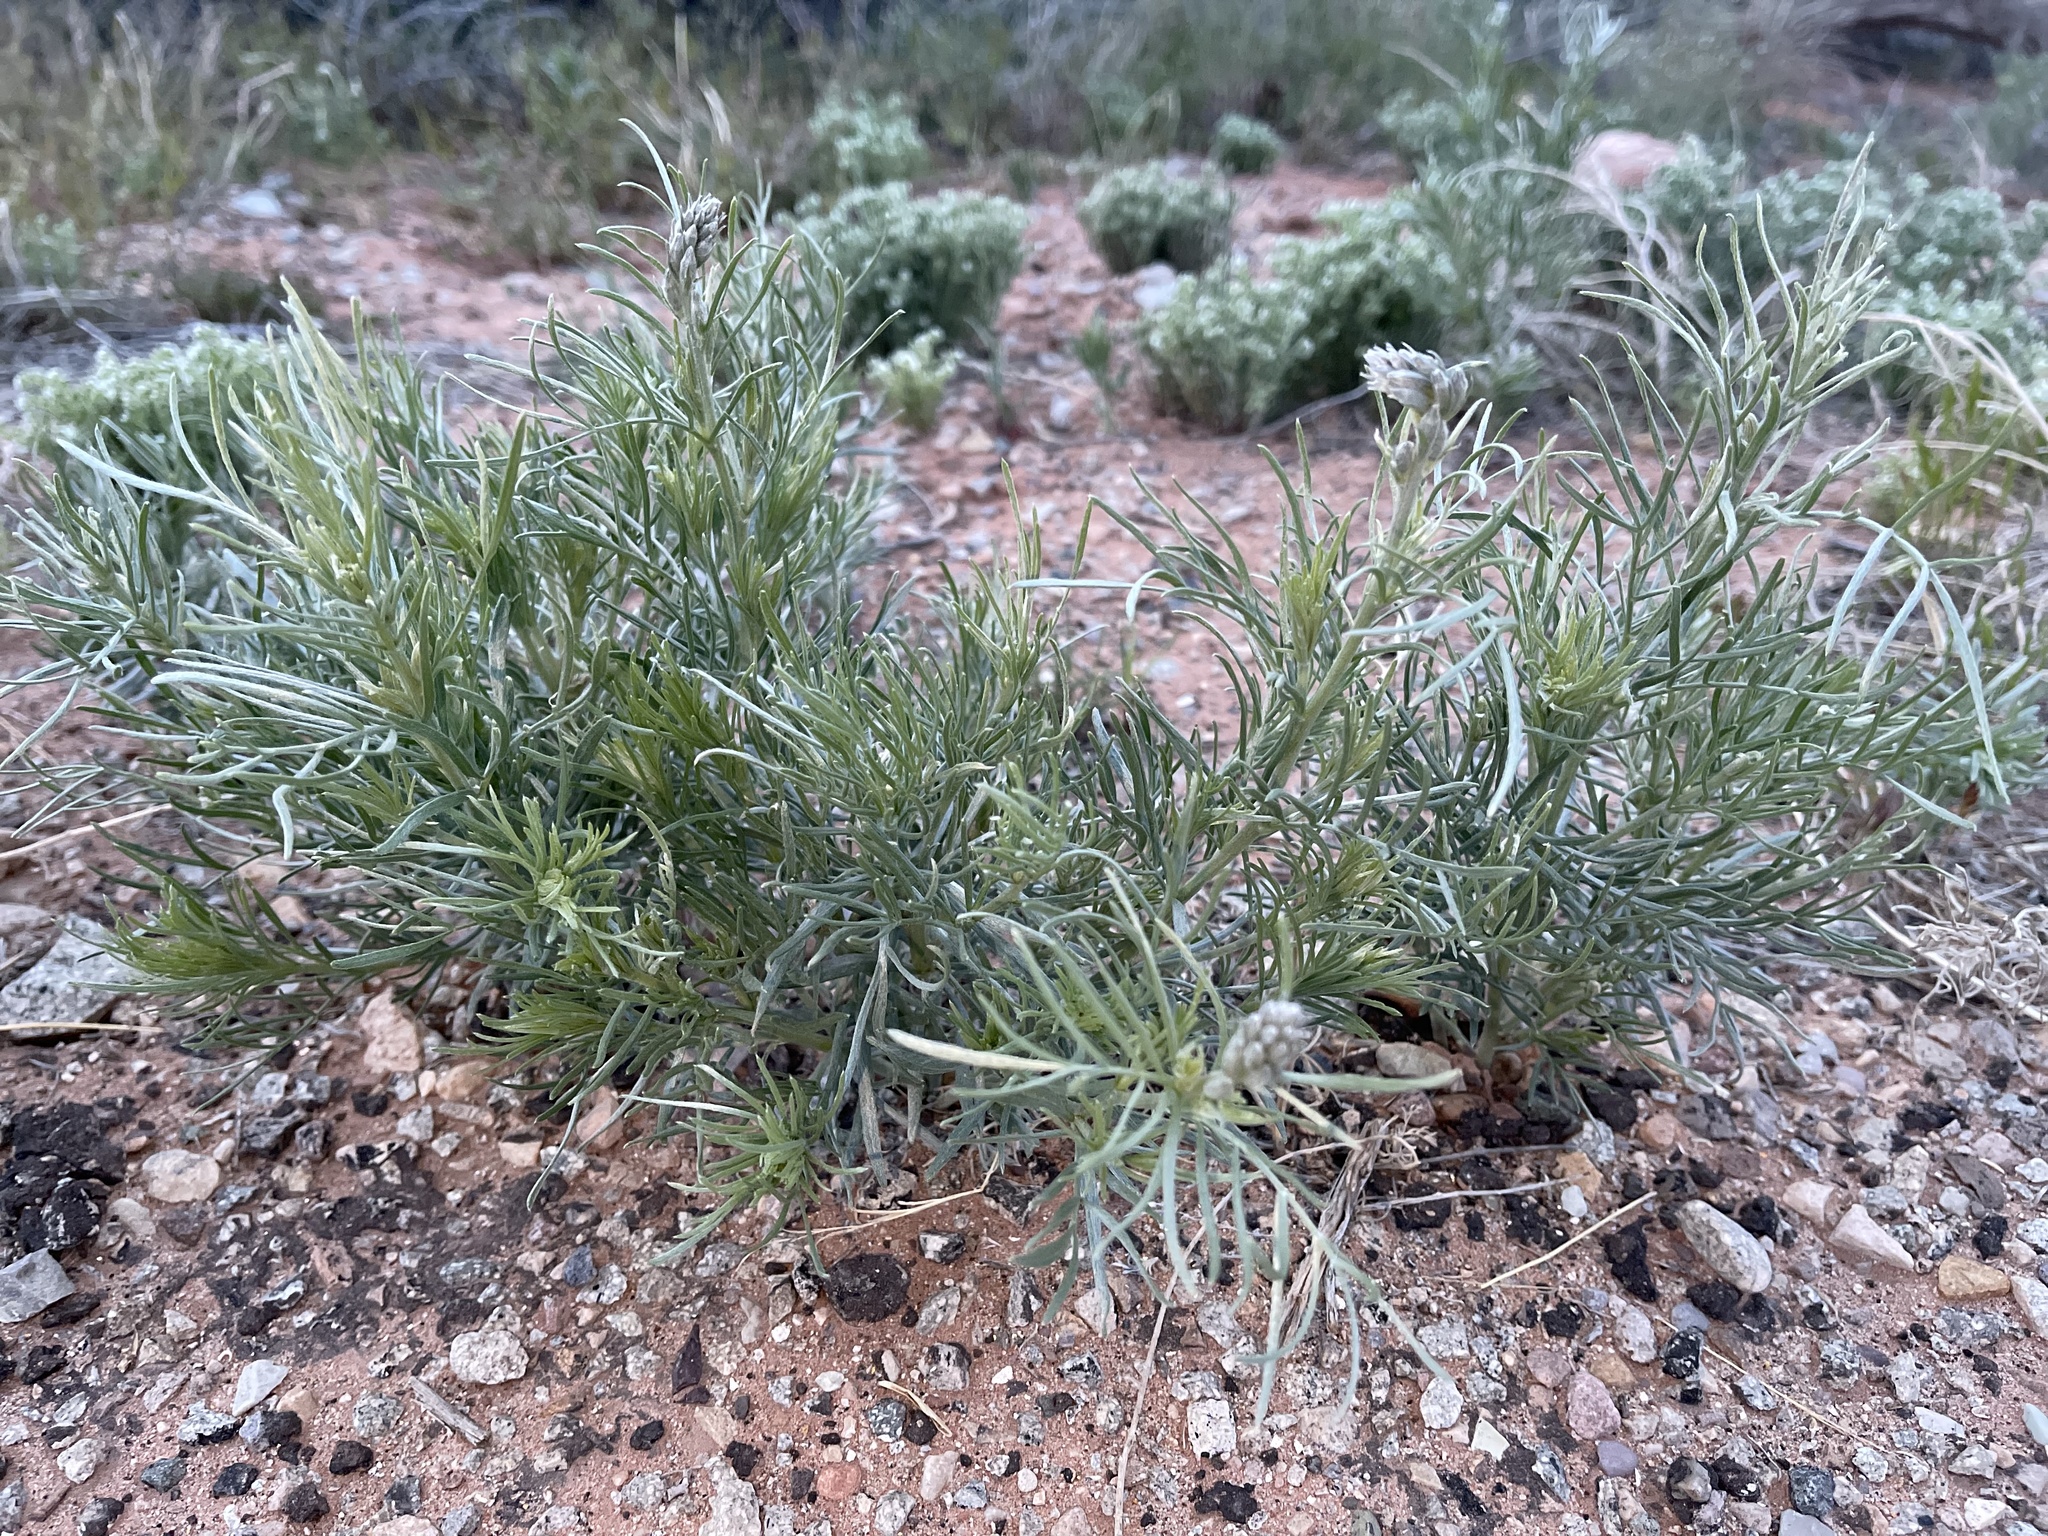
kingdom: Plantae
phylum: Tracheophyta
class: Magnoliopsida
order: Fabales
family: Fabaceae
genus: Sophora
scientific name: Sophora stenophylla
